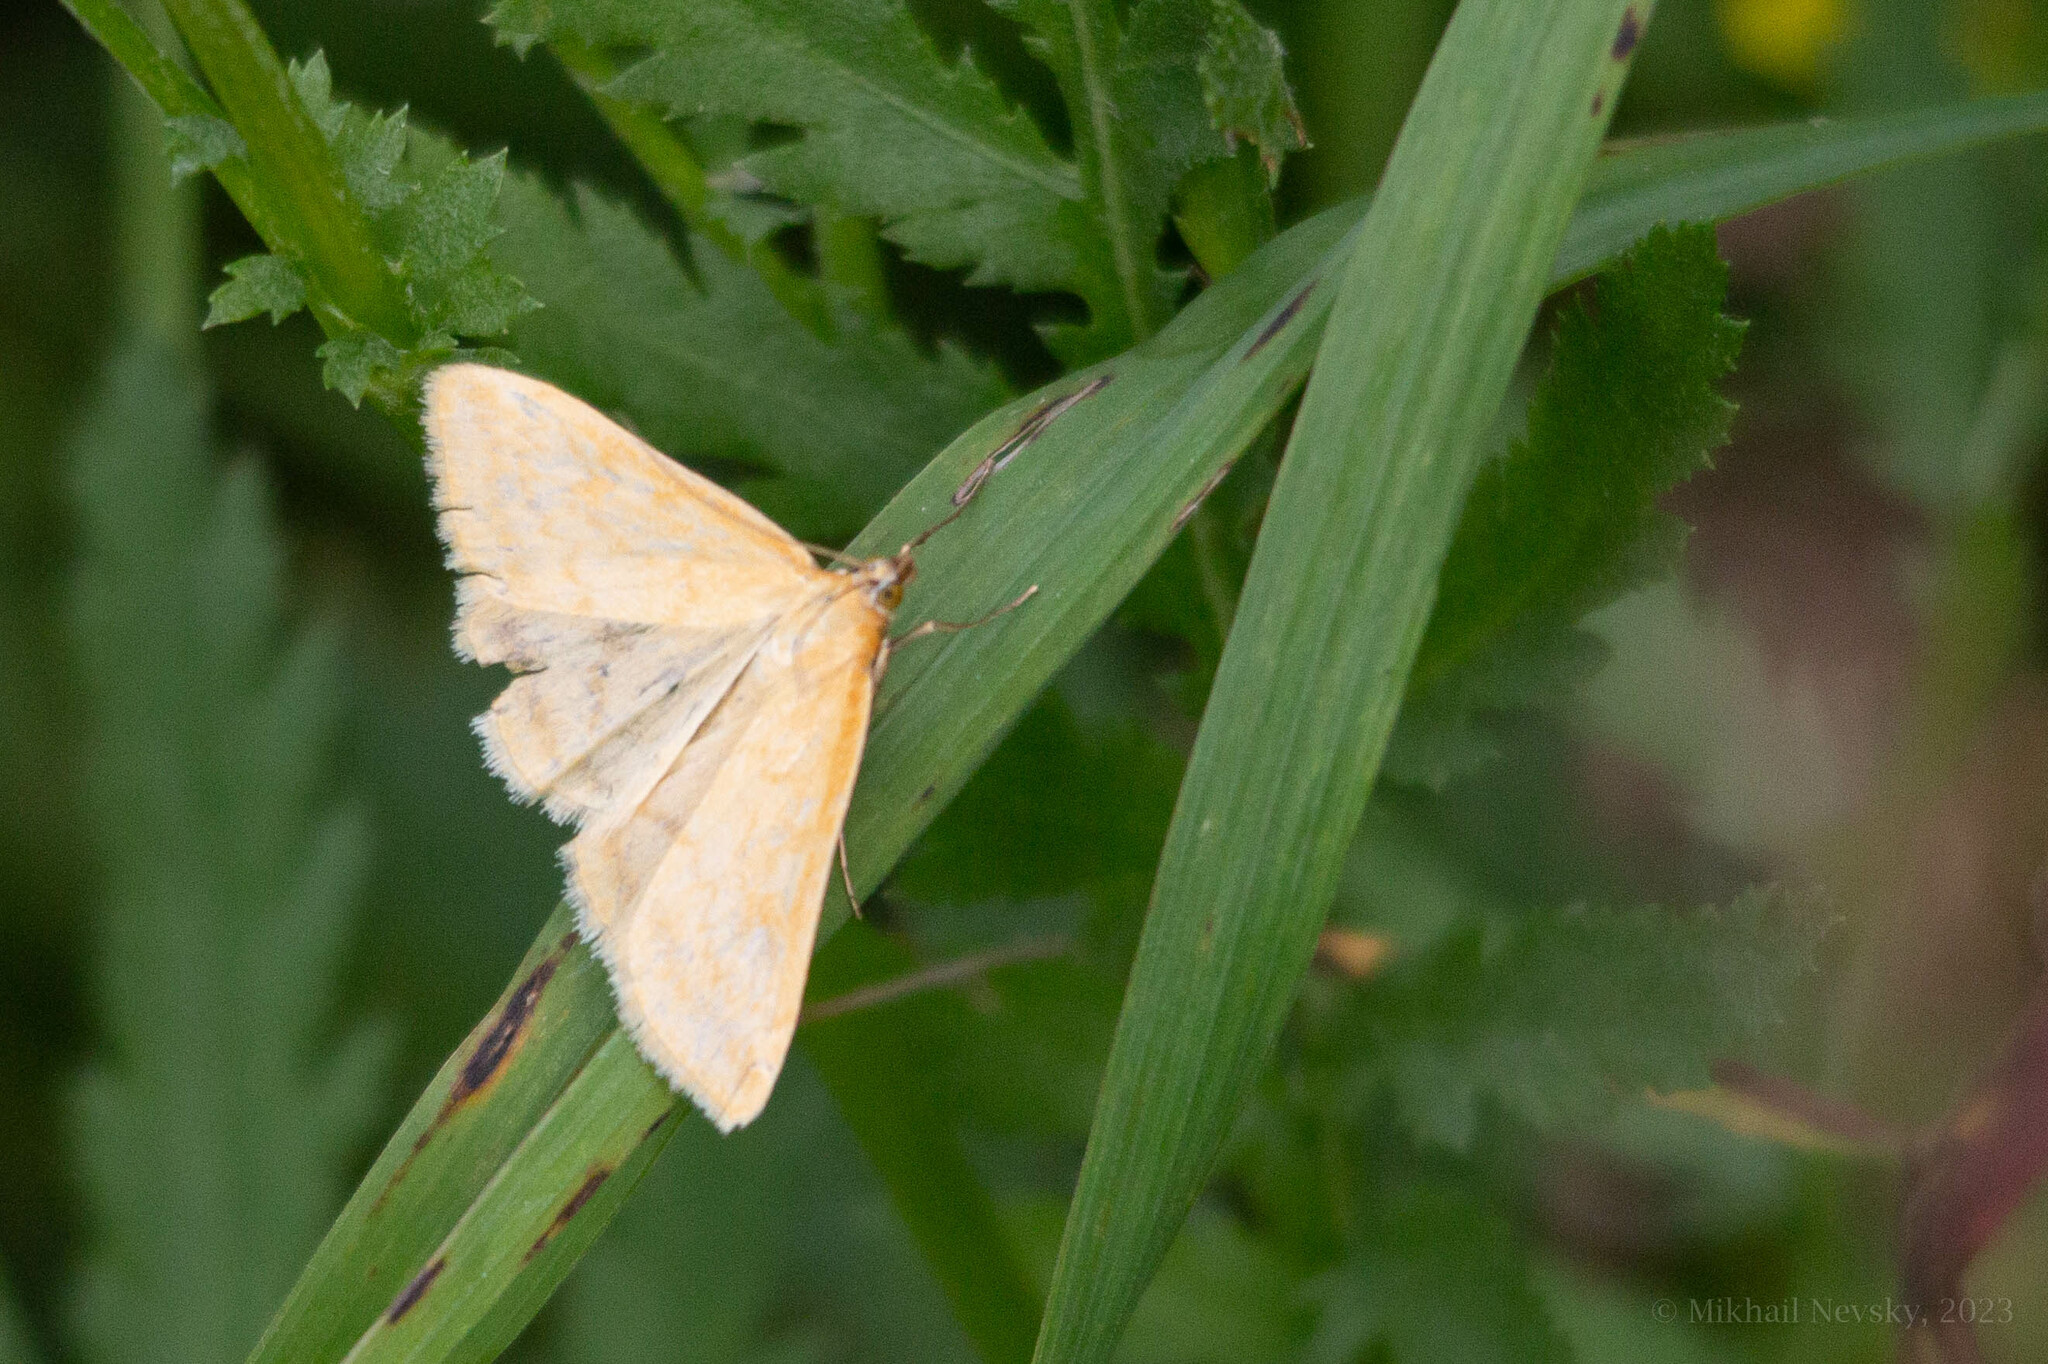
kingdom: Animalia
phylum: Arthropoda
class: Insecta
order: Lepidoptera
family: Crambidae
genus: Sitochroa
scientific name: Sitochroa verticalis
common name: Lesser pearl
